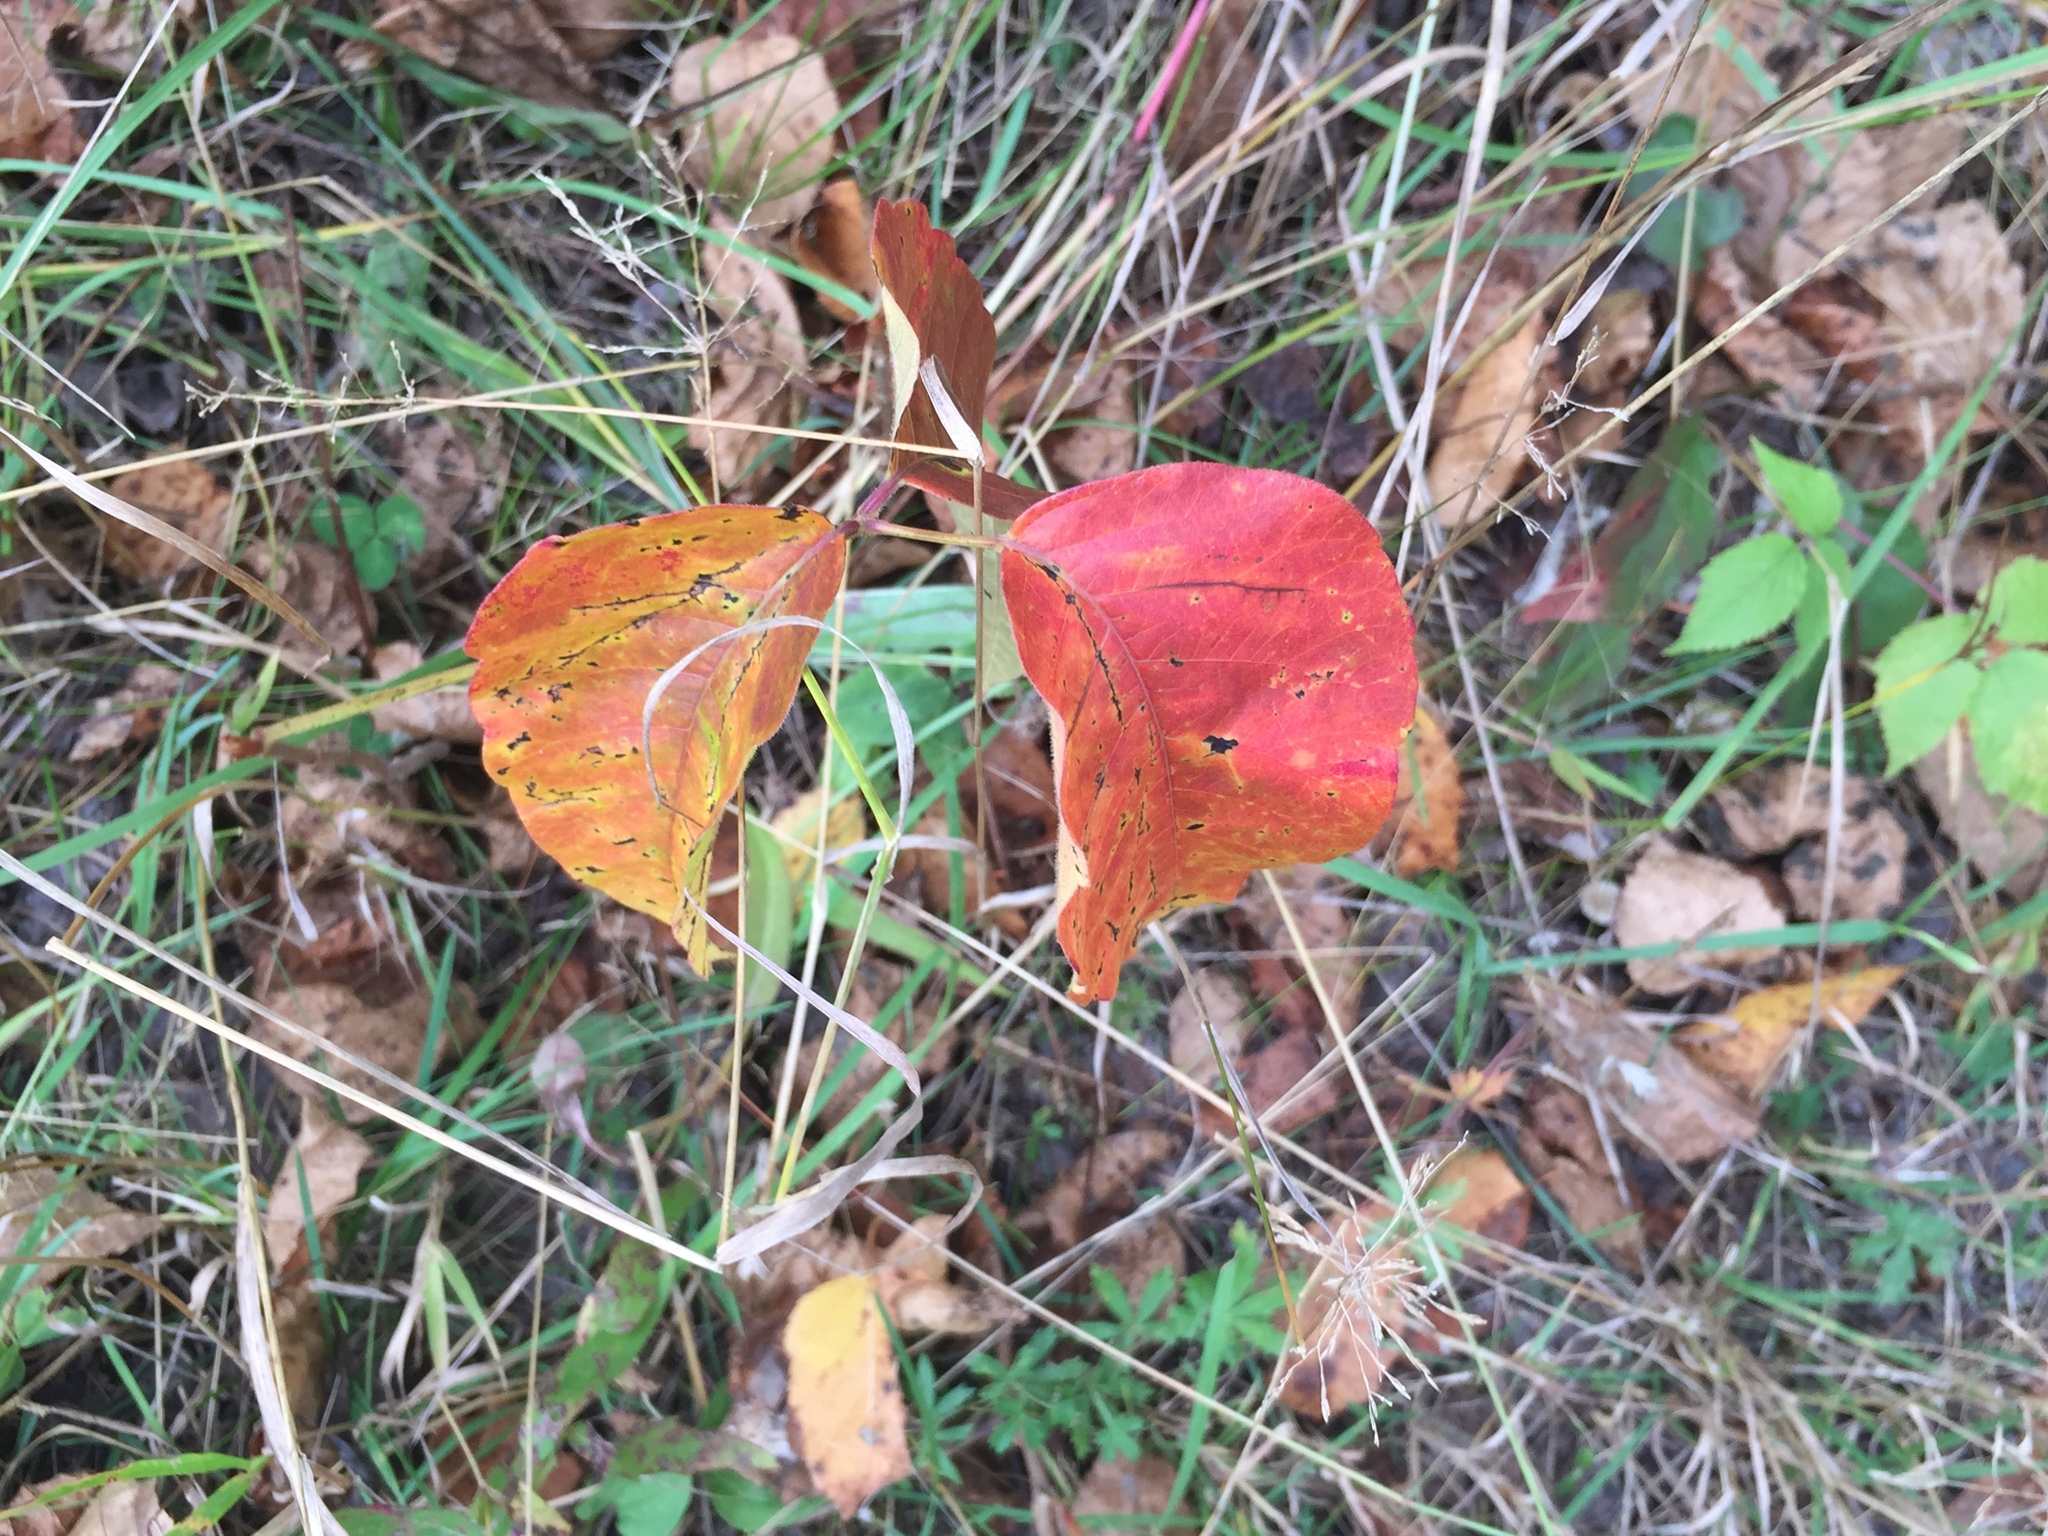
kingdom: Plantae
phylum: Tracheophyta
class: Magnoliopsida
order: Sapindales
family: Anacardiaceae
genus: Toxicodendron
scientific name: Toxicodendron rydbergii
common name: Rydberg's poison-ivy
